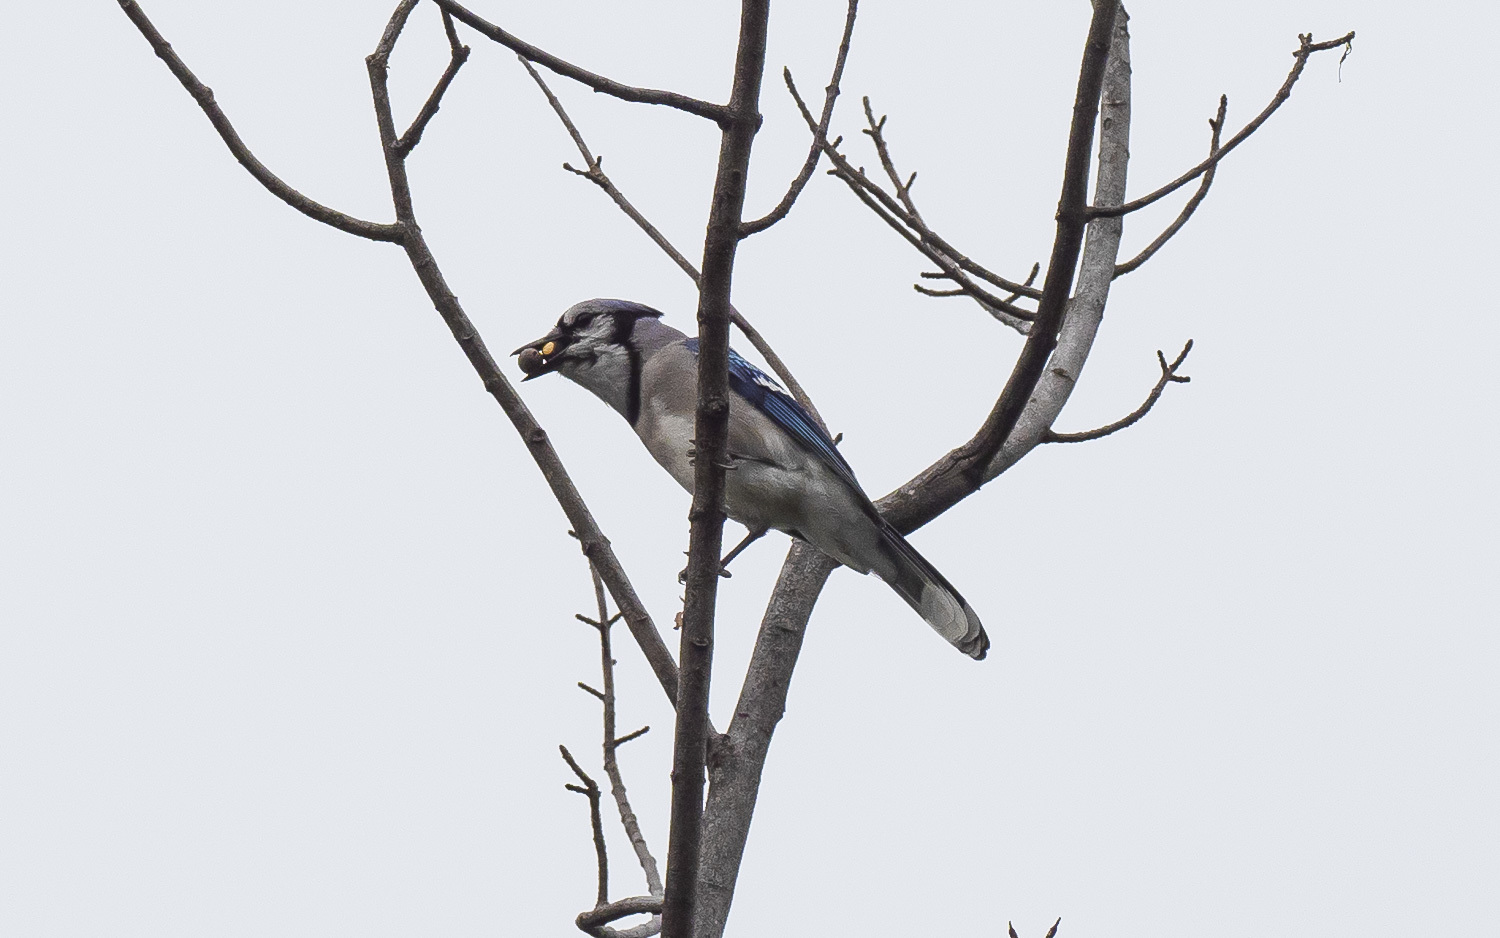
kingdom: Animalia
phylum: Chordata
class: Aves
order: Passeriformes
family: Corvidae
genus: Cyanocitta
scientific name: Cyanocitta cristata
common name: Blue jay
